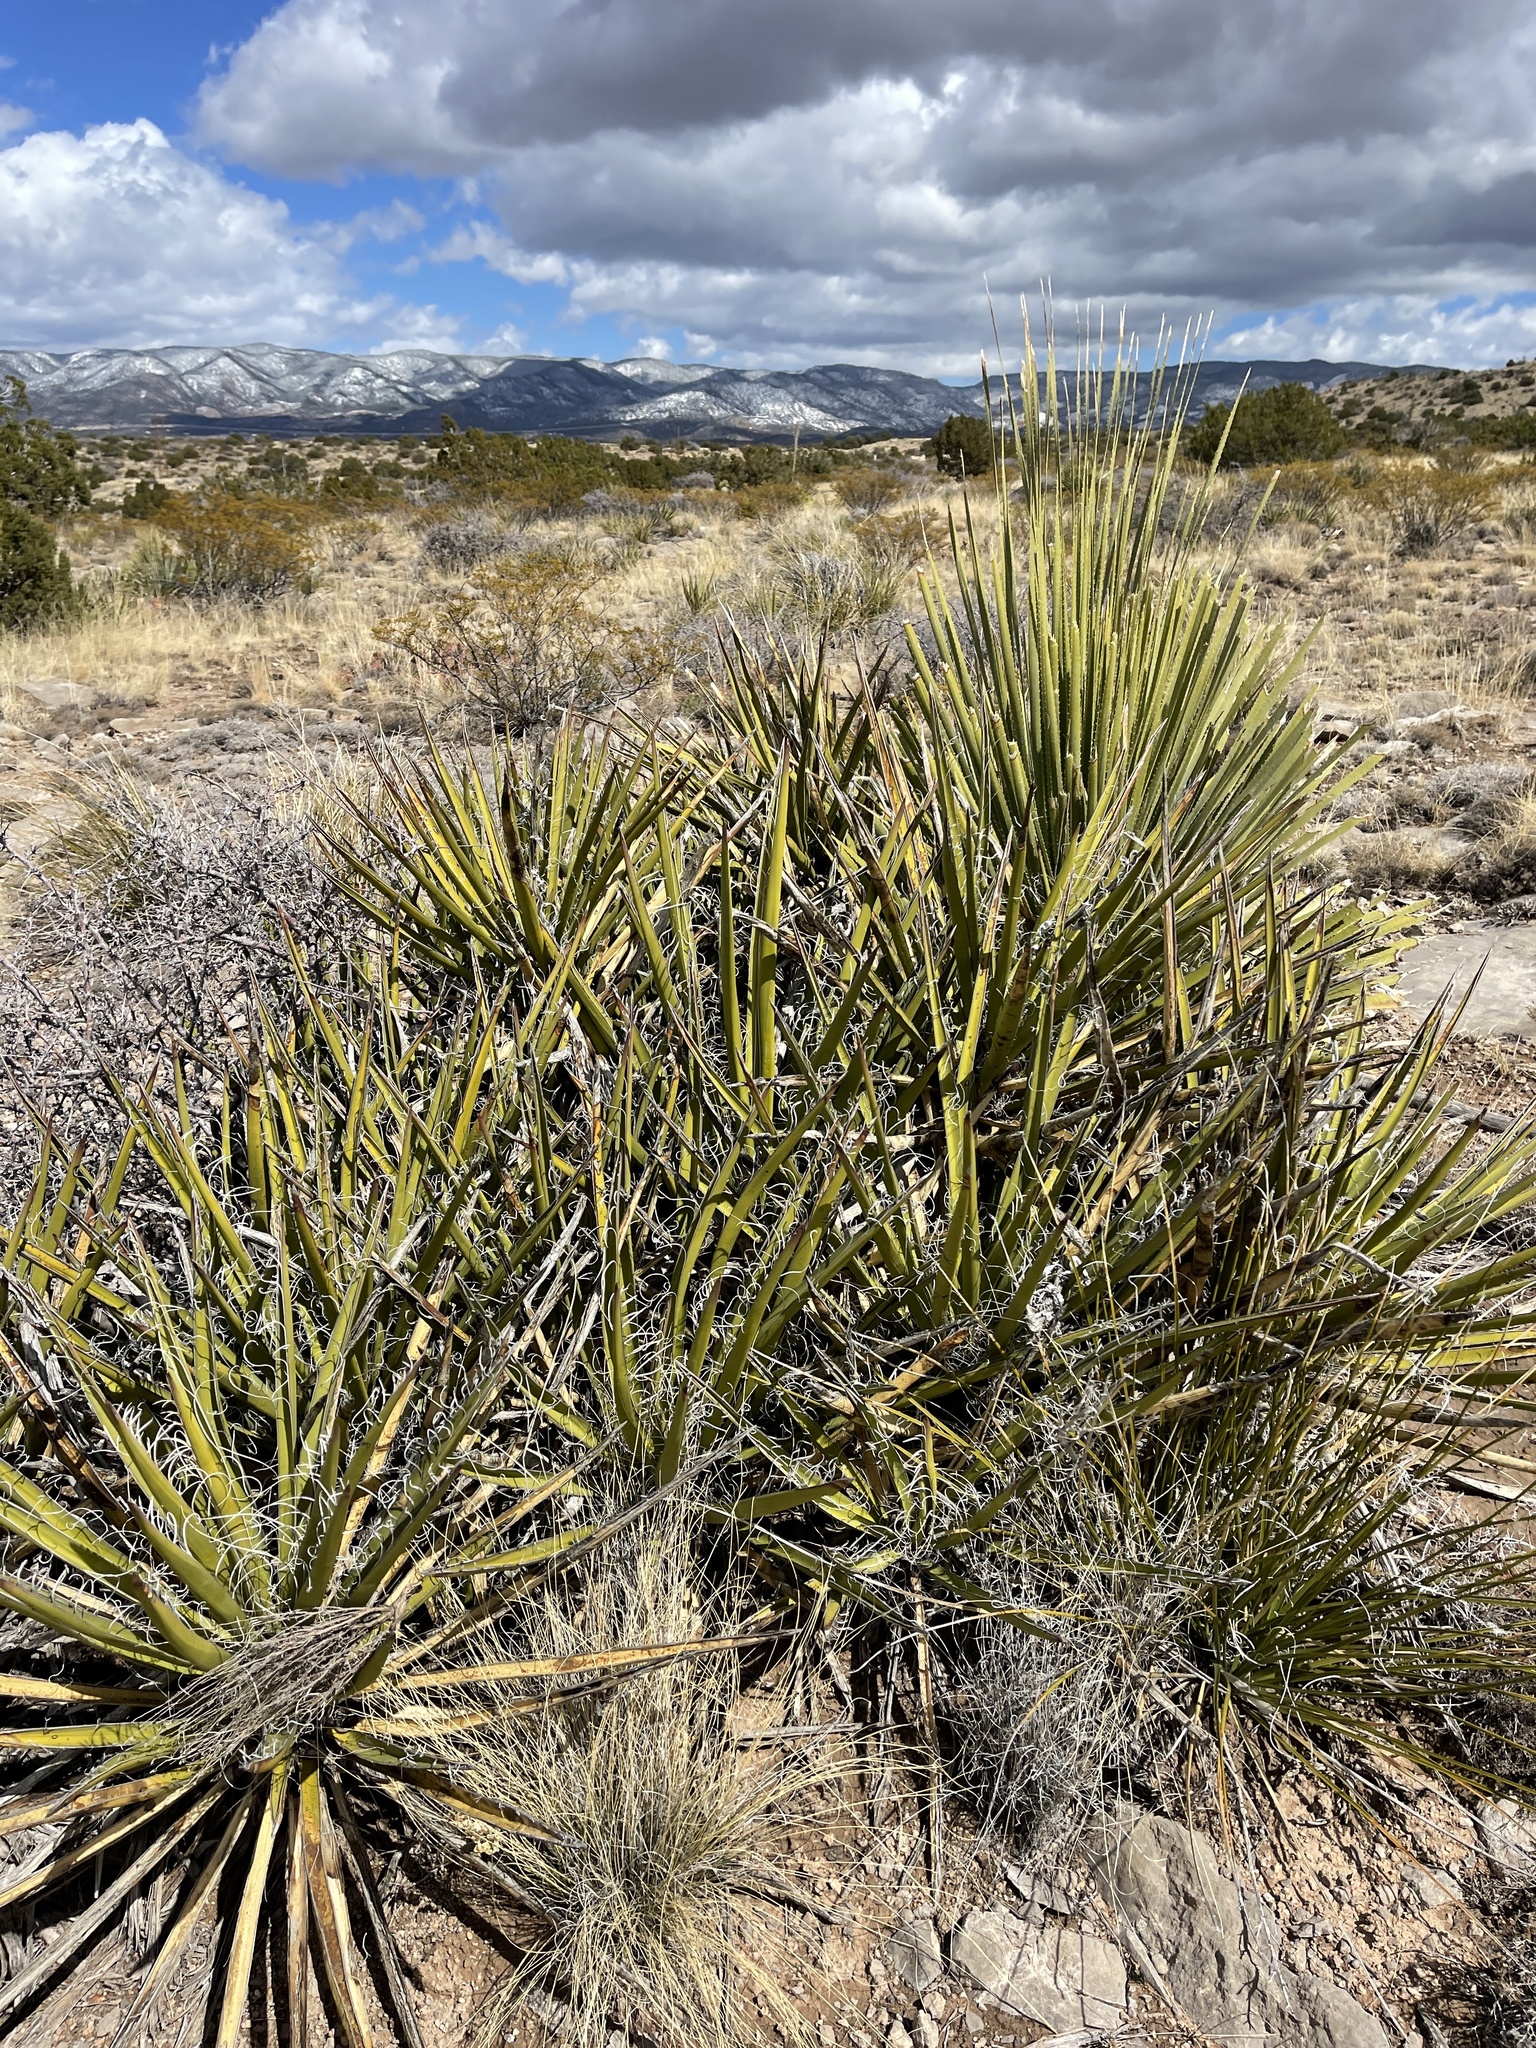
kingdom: Plantae
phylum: Tracheophyta
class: Liliopsida
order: Asparagales
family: Asparagaceae
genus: Yucca
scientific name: Yucca baccata
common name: Banana yucca
